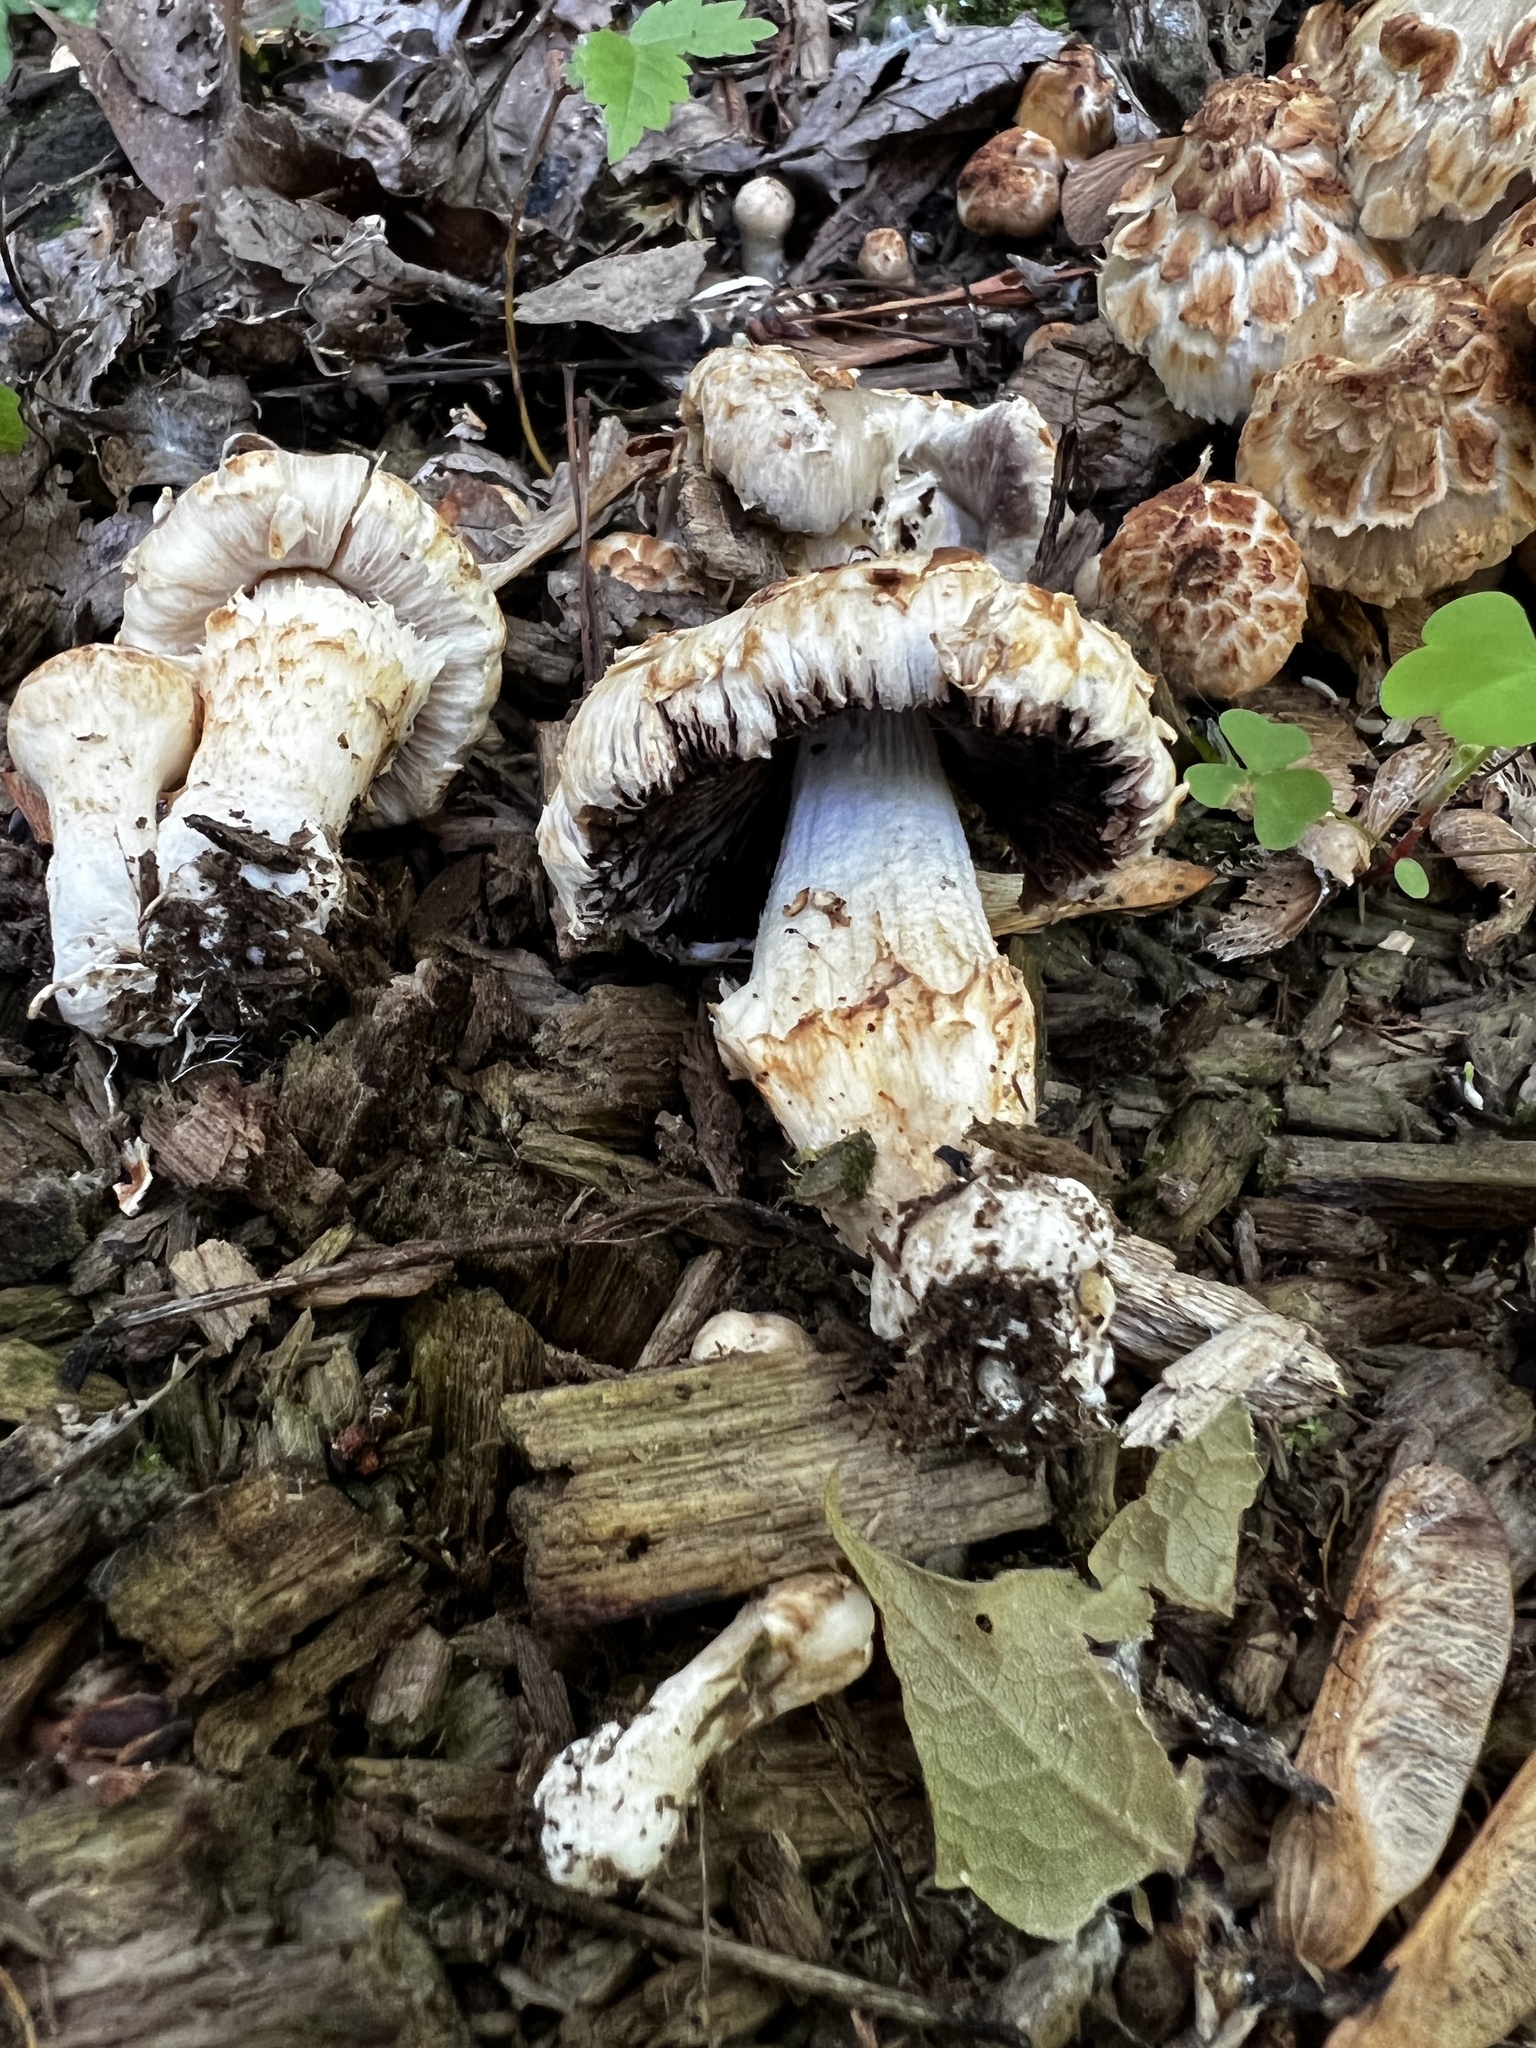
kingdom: Fungi
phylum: Basidiomycota
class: Agaricomycetes
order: Agaricales
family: Psathyrellaceae
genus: Coprinopsis
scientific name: Coprinopsis variegata
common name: Scaly ink cap
